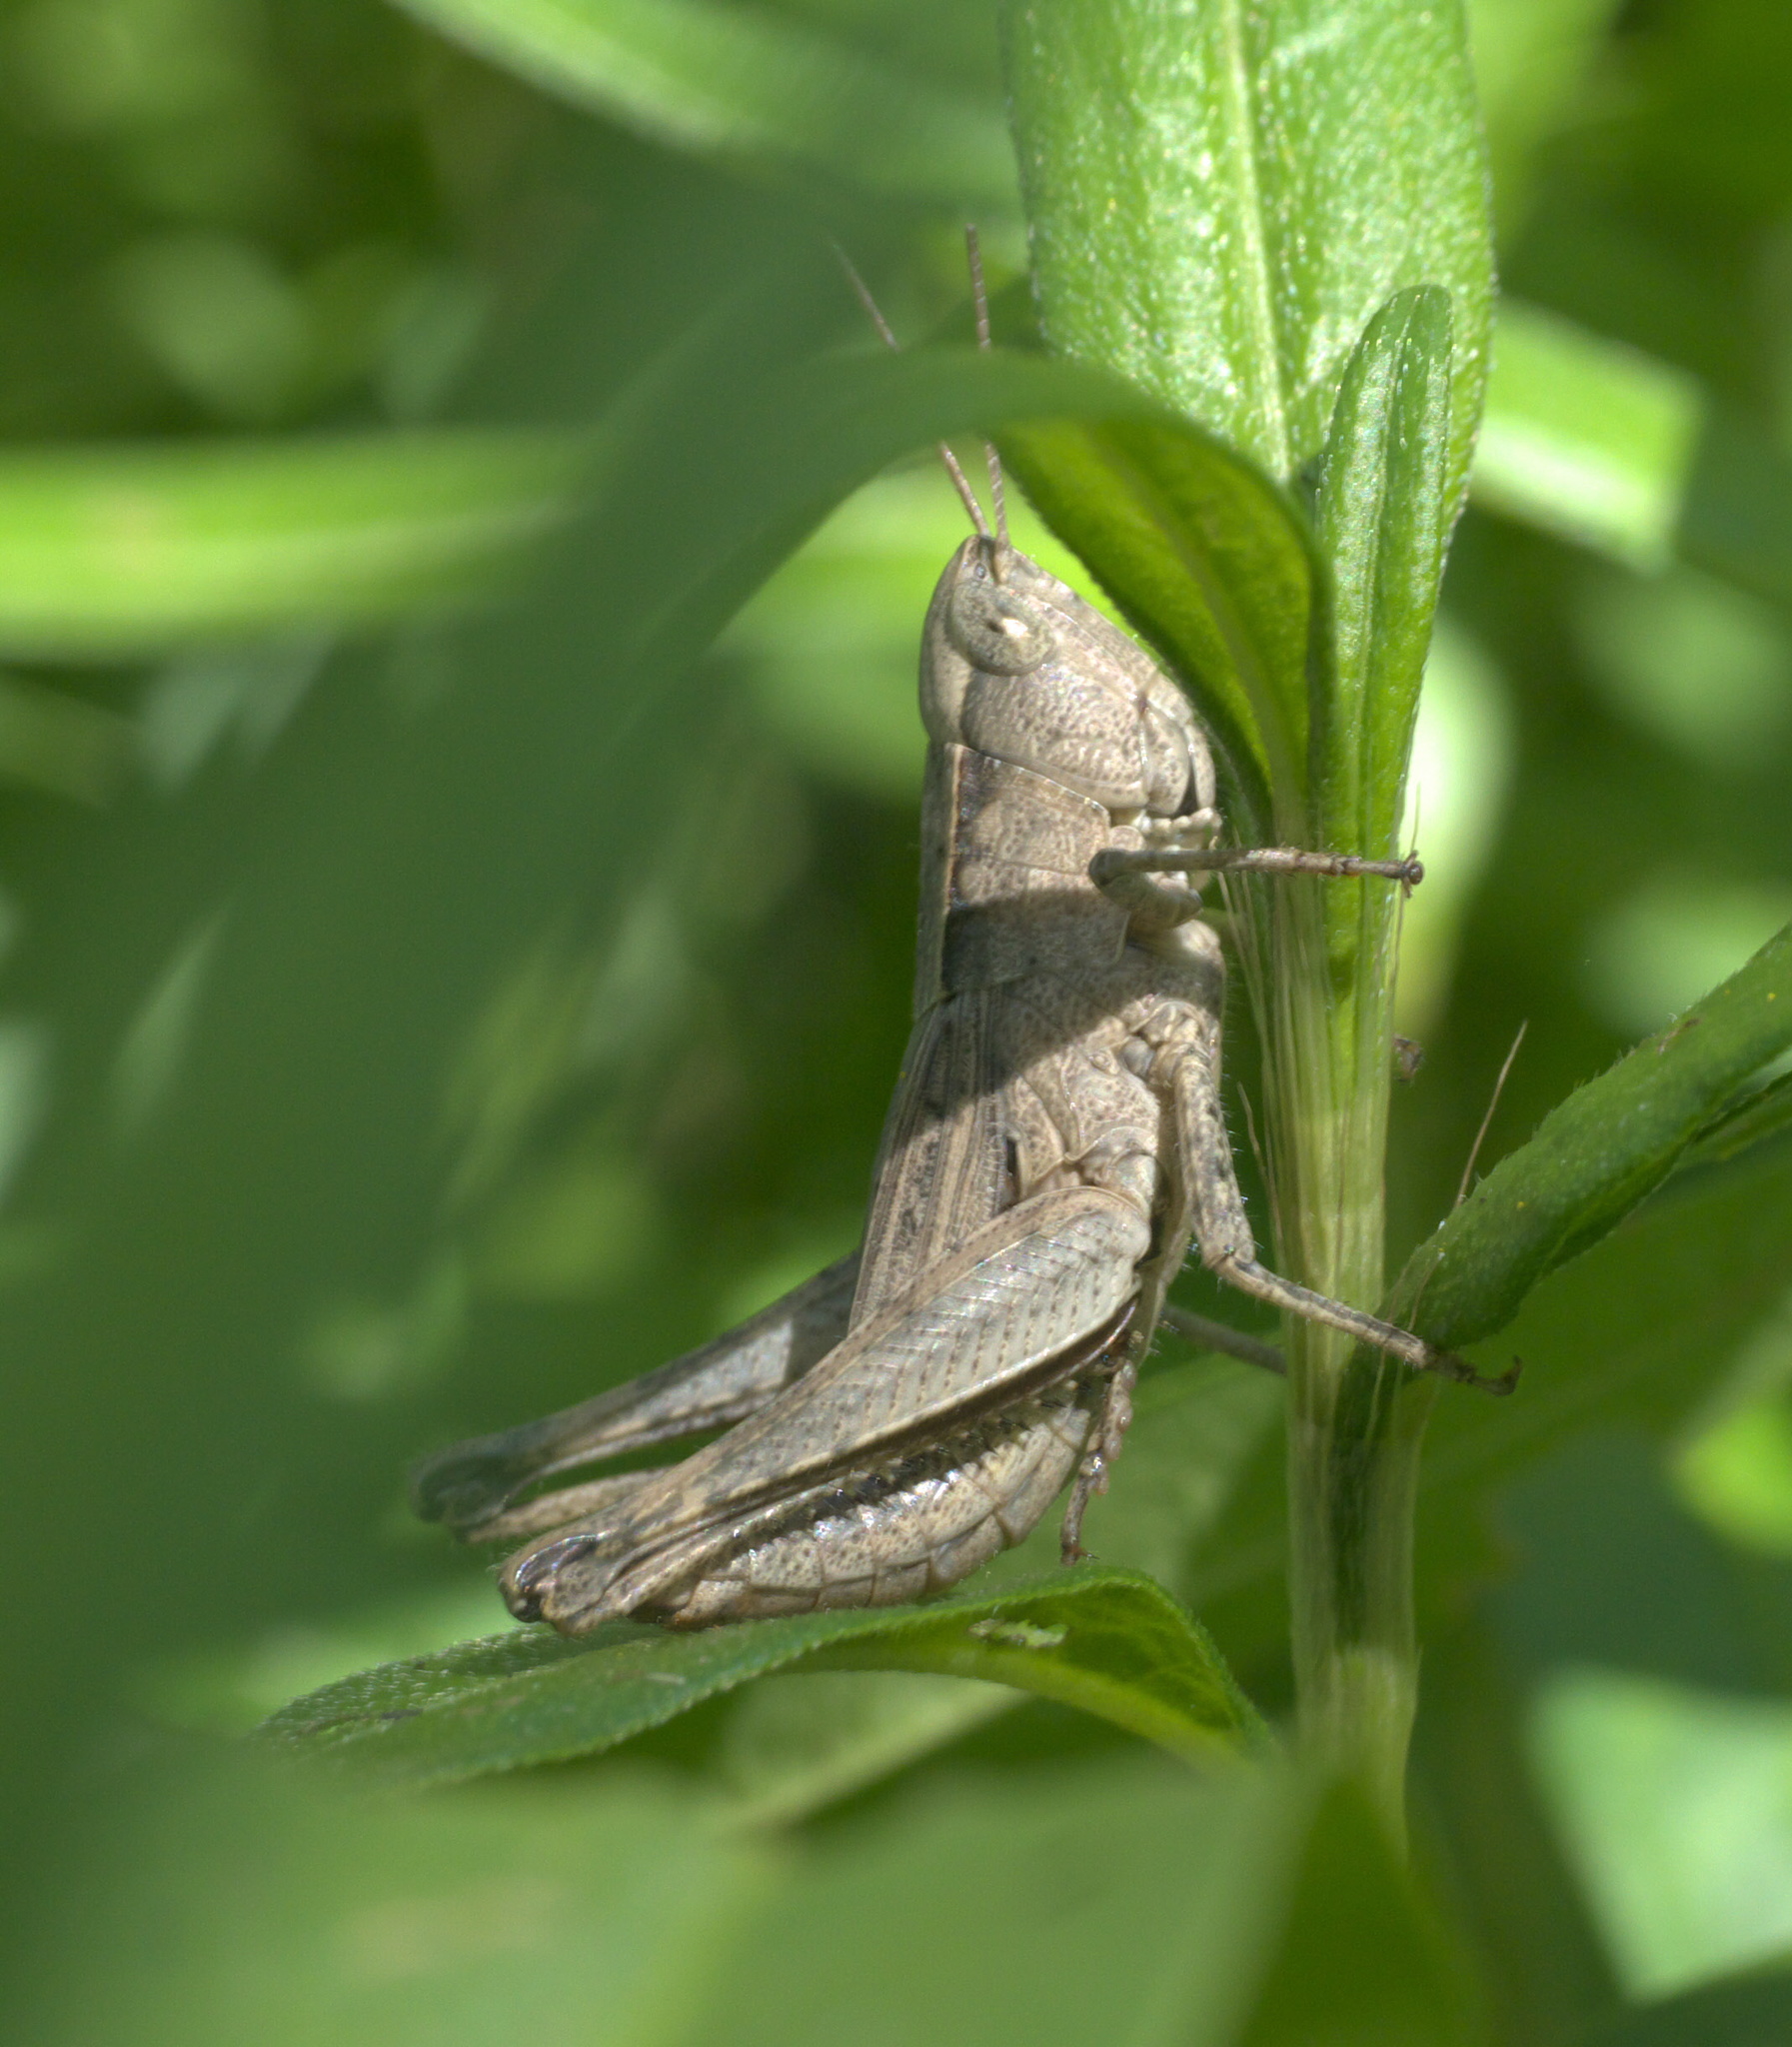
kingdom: Animalia
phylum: Arthropoda
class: Insecta
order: Orthoptera
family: Acrididae
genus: Dichromorpha
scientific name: Dichromorpha viridis
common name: Short-winged green grasshopper
